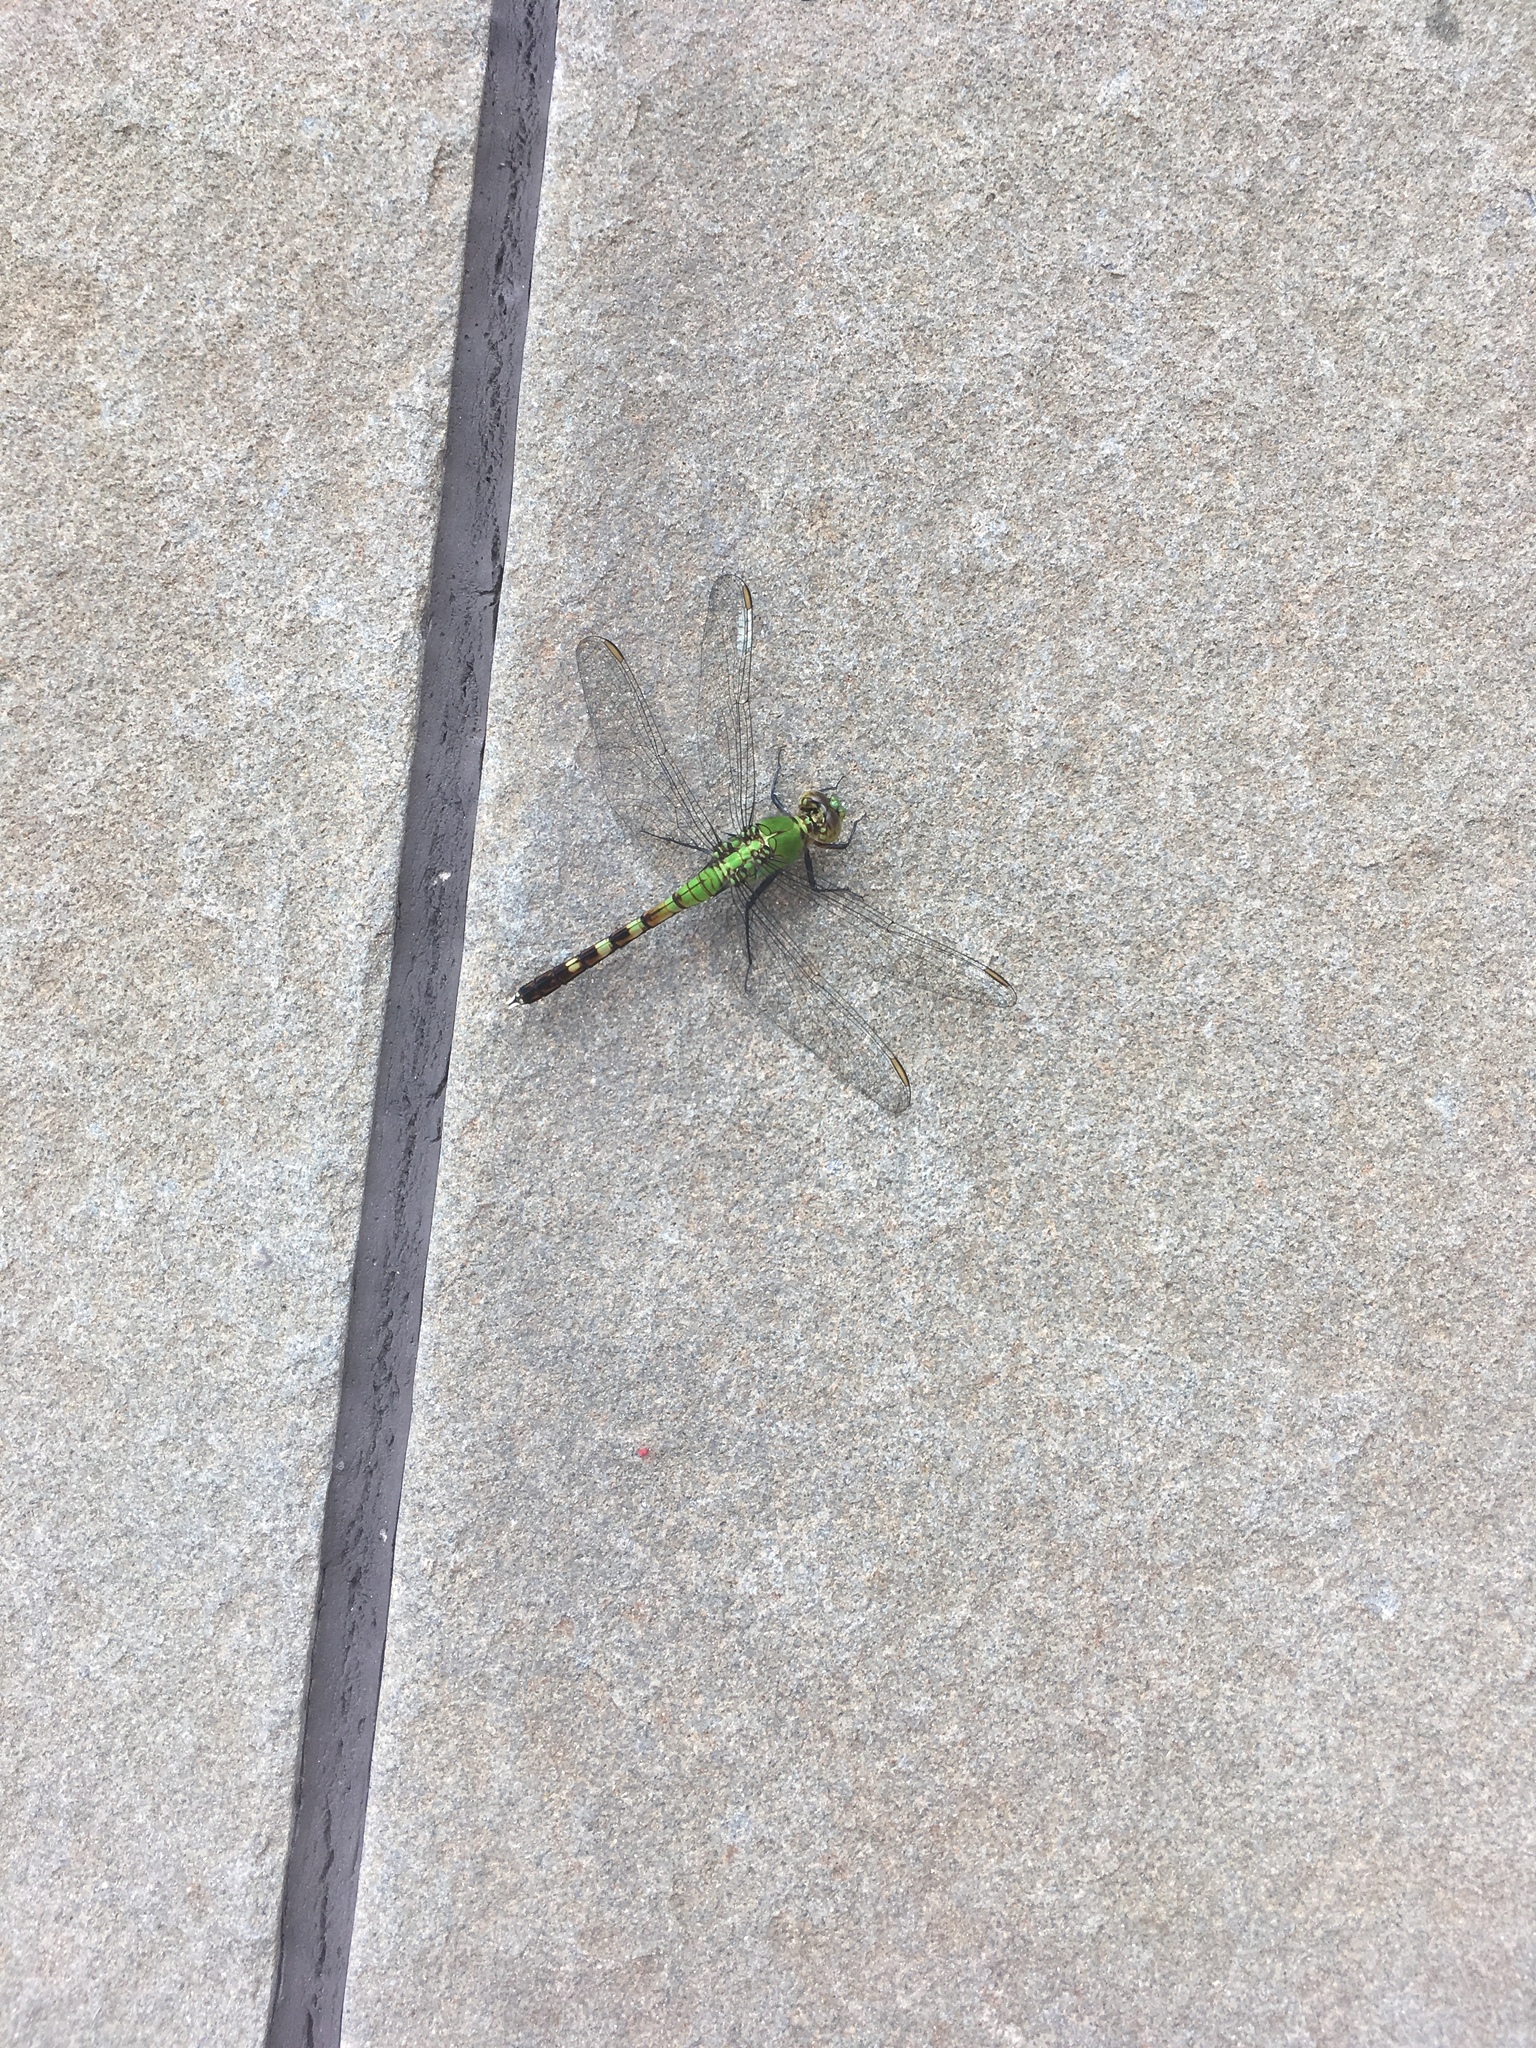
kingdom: Animalia
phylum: Arthropoda
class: Insecta
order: Odonata
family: Libellulidae
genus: Erythemis
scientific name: Erythemis simplicicollis
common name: Eastern pondhawk
